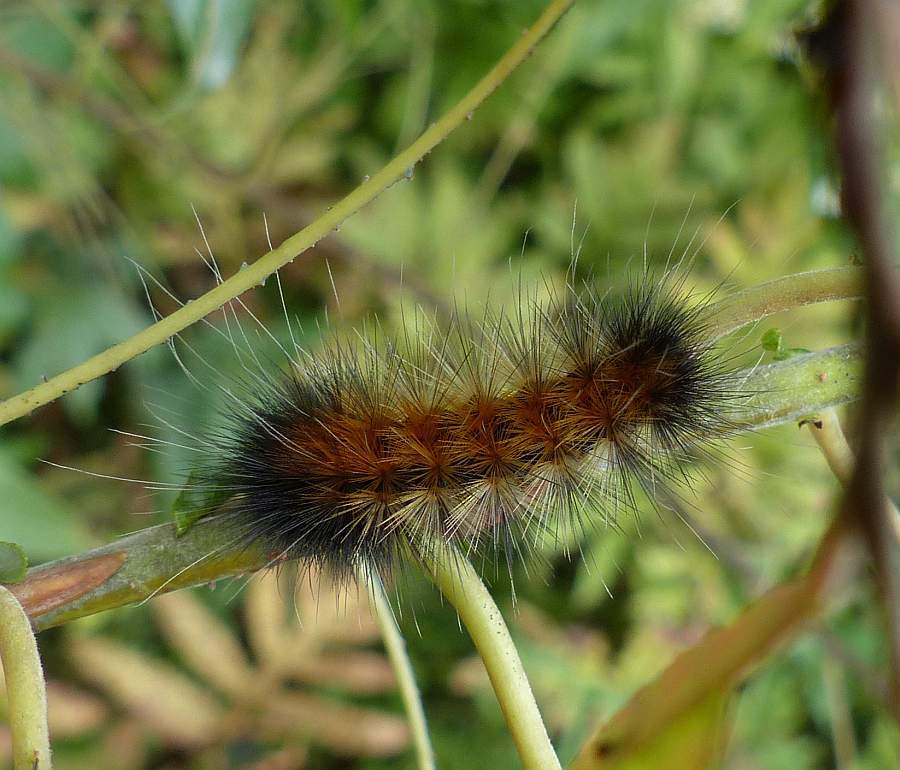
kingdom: Animalia
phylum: Arthropoda
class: Insecta
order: Lepidoptera
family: Erebidae
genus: Spilosoma
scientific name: Spilosoma virginica
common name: Virginia tiger moth
